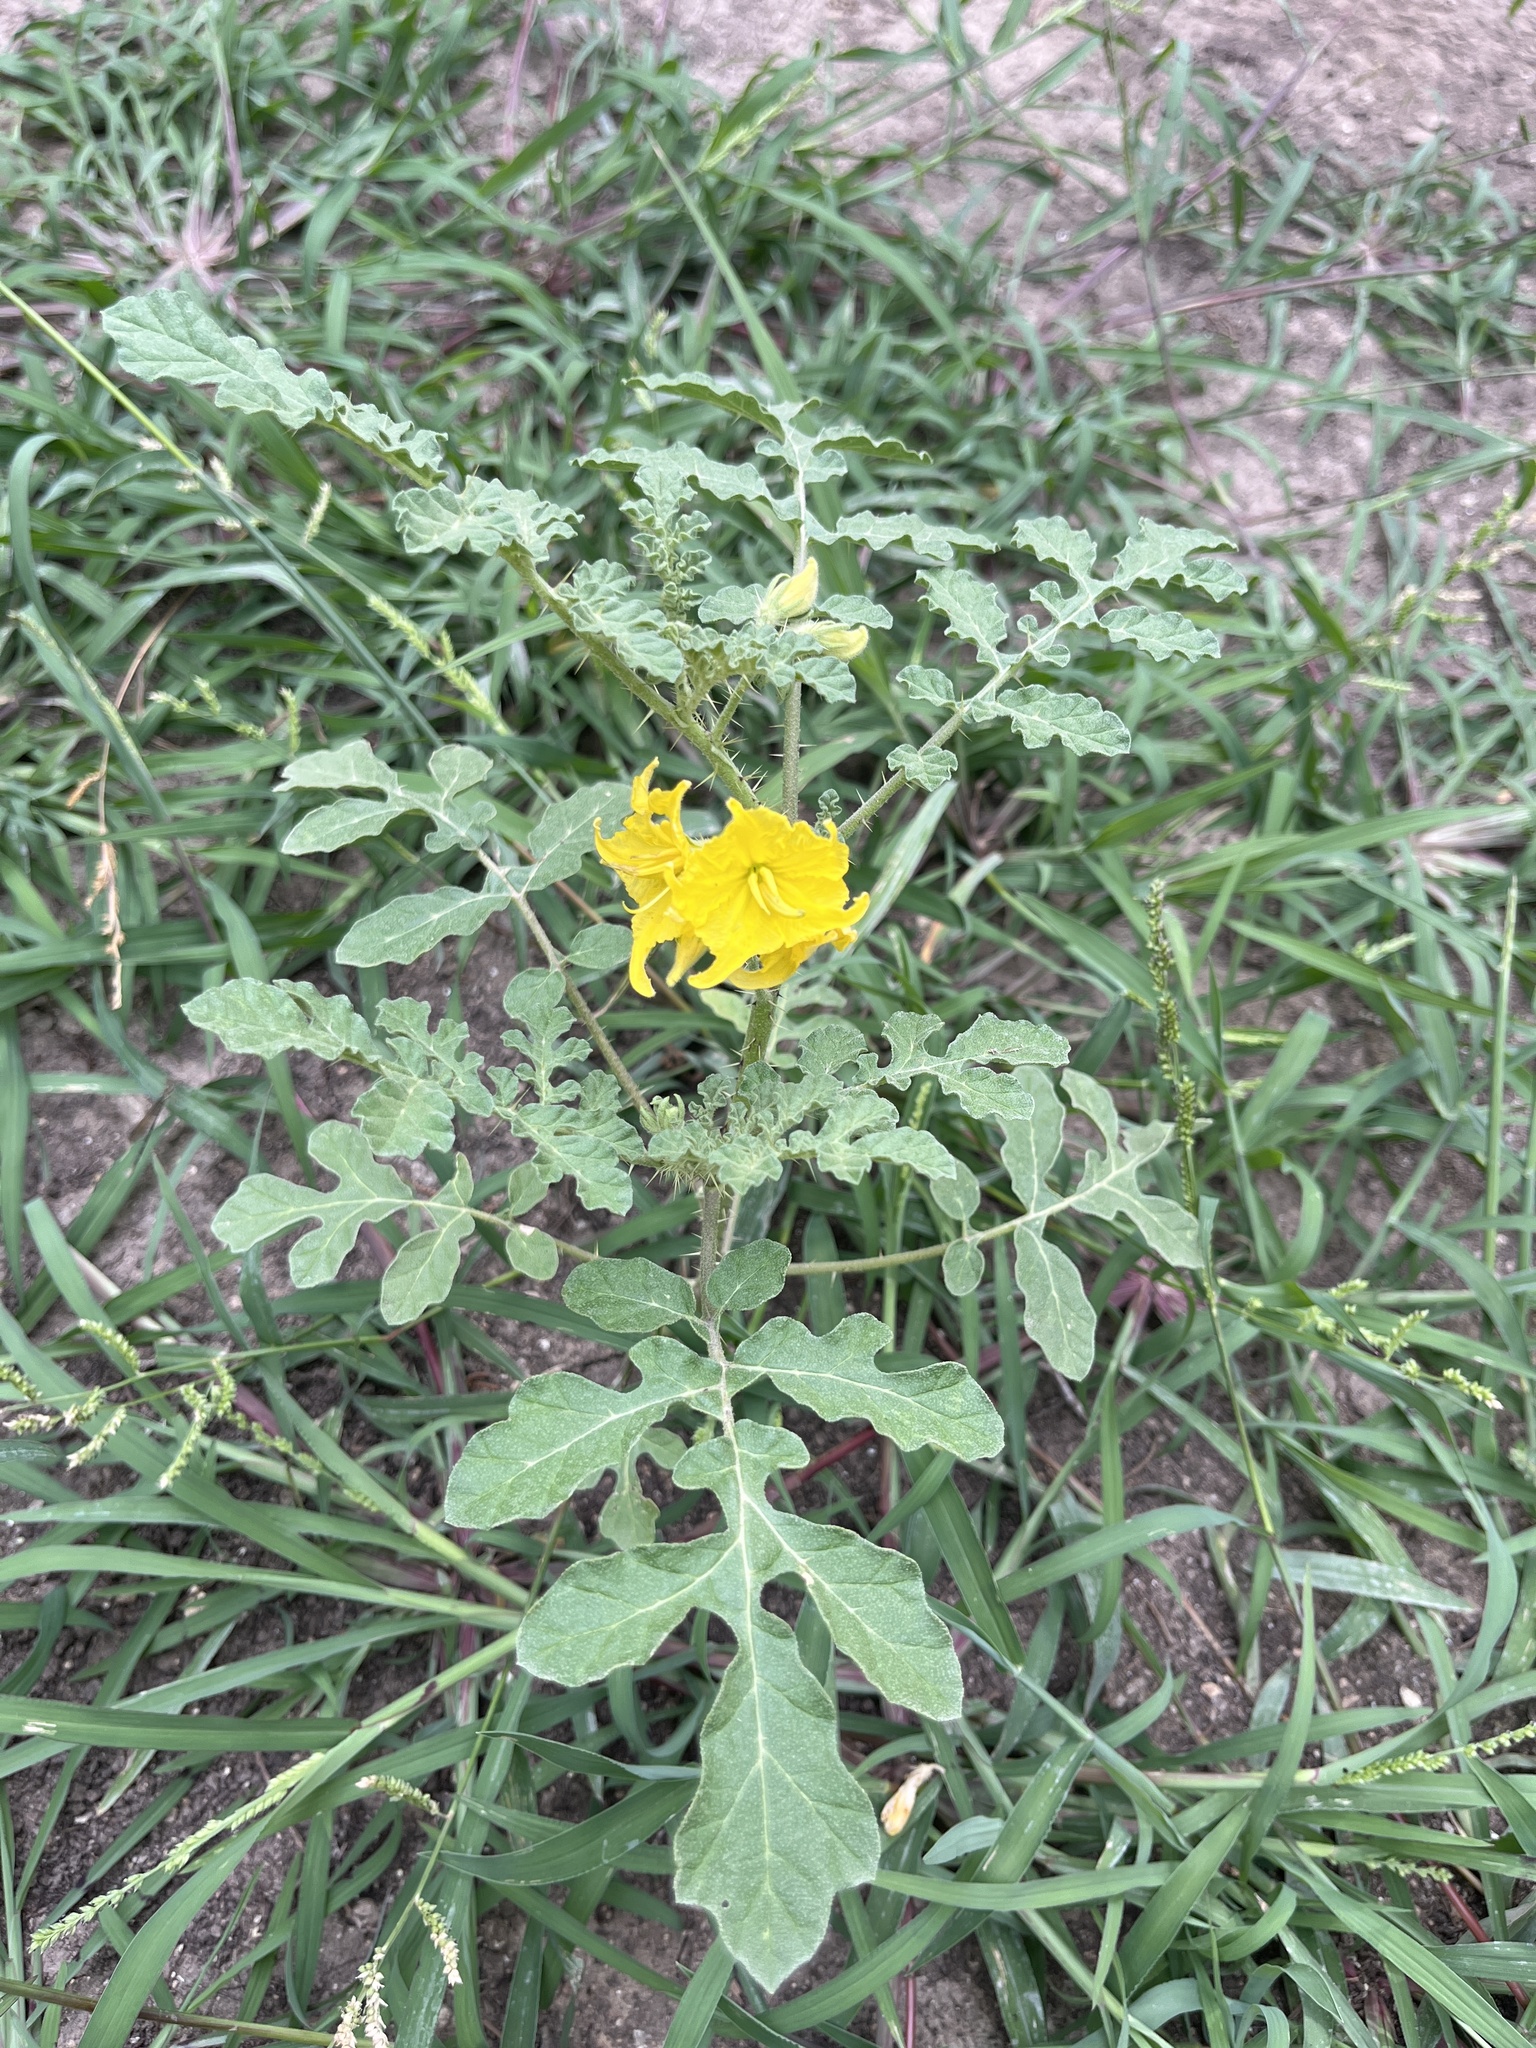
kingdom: Plantae
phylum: Tracheophyta
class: Magnoliopsida
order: Solanales
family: Solanaceae
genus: Solanum
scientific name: Solanum angustifolium
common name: Buffalobur nightshade
